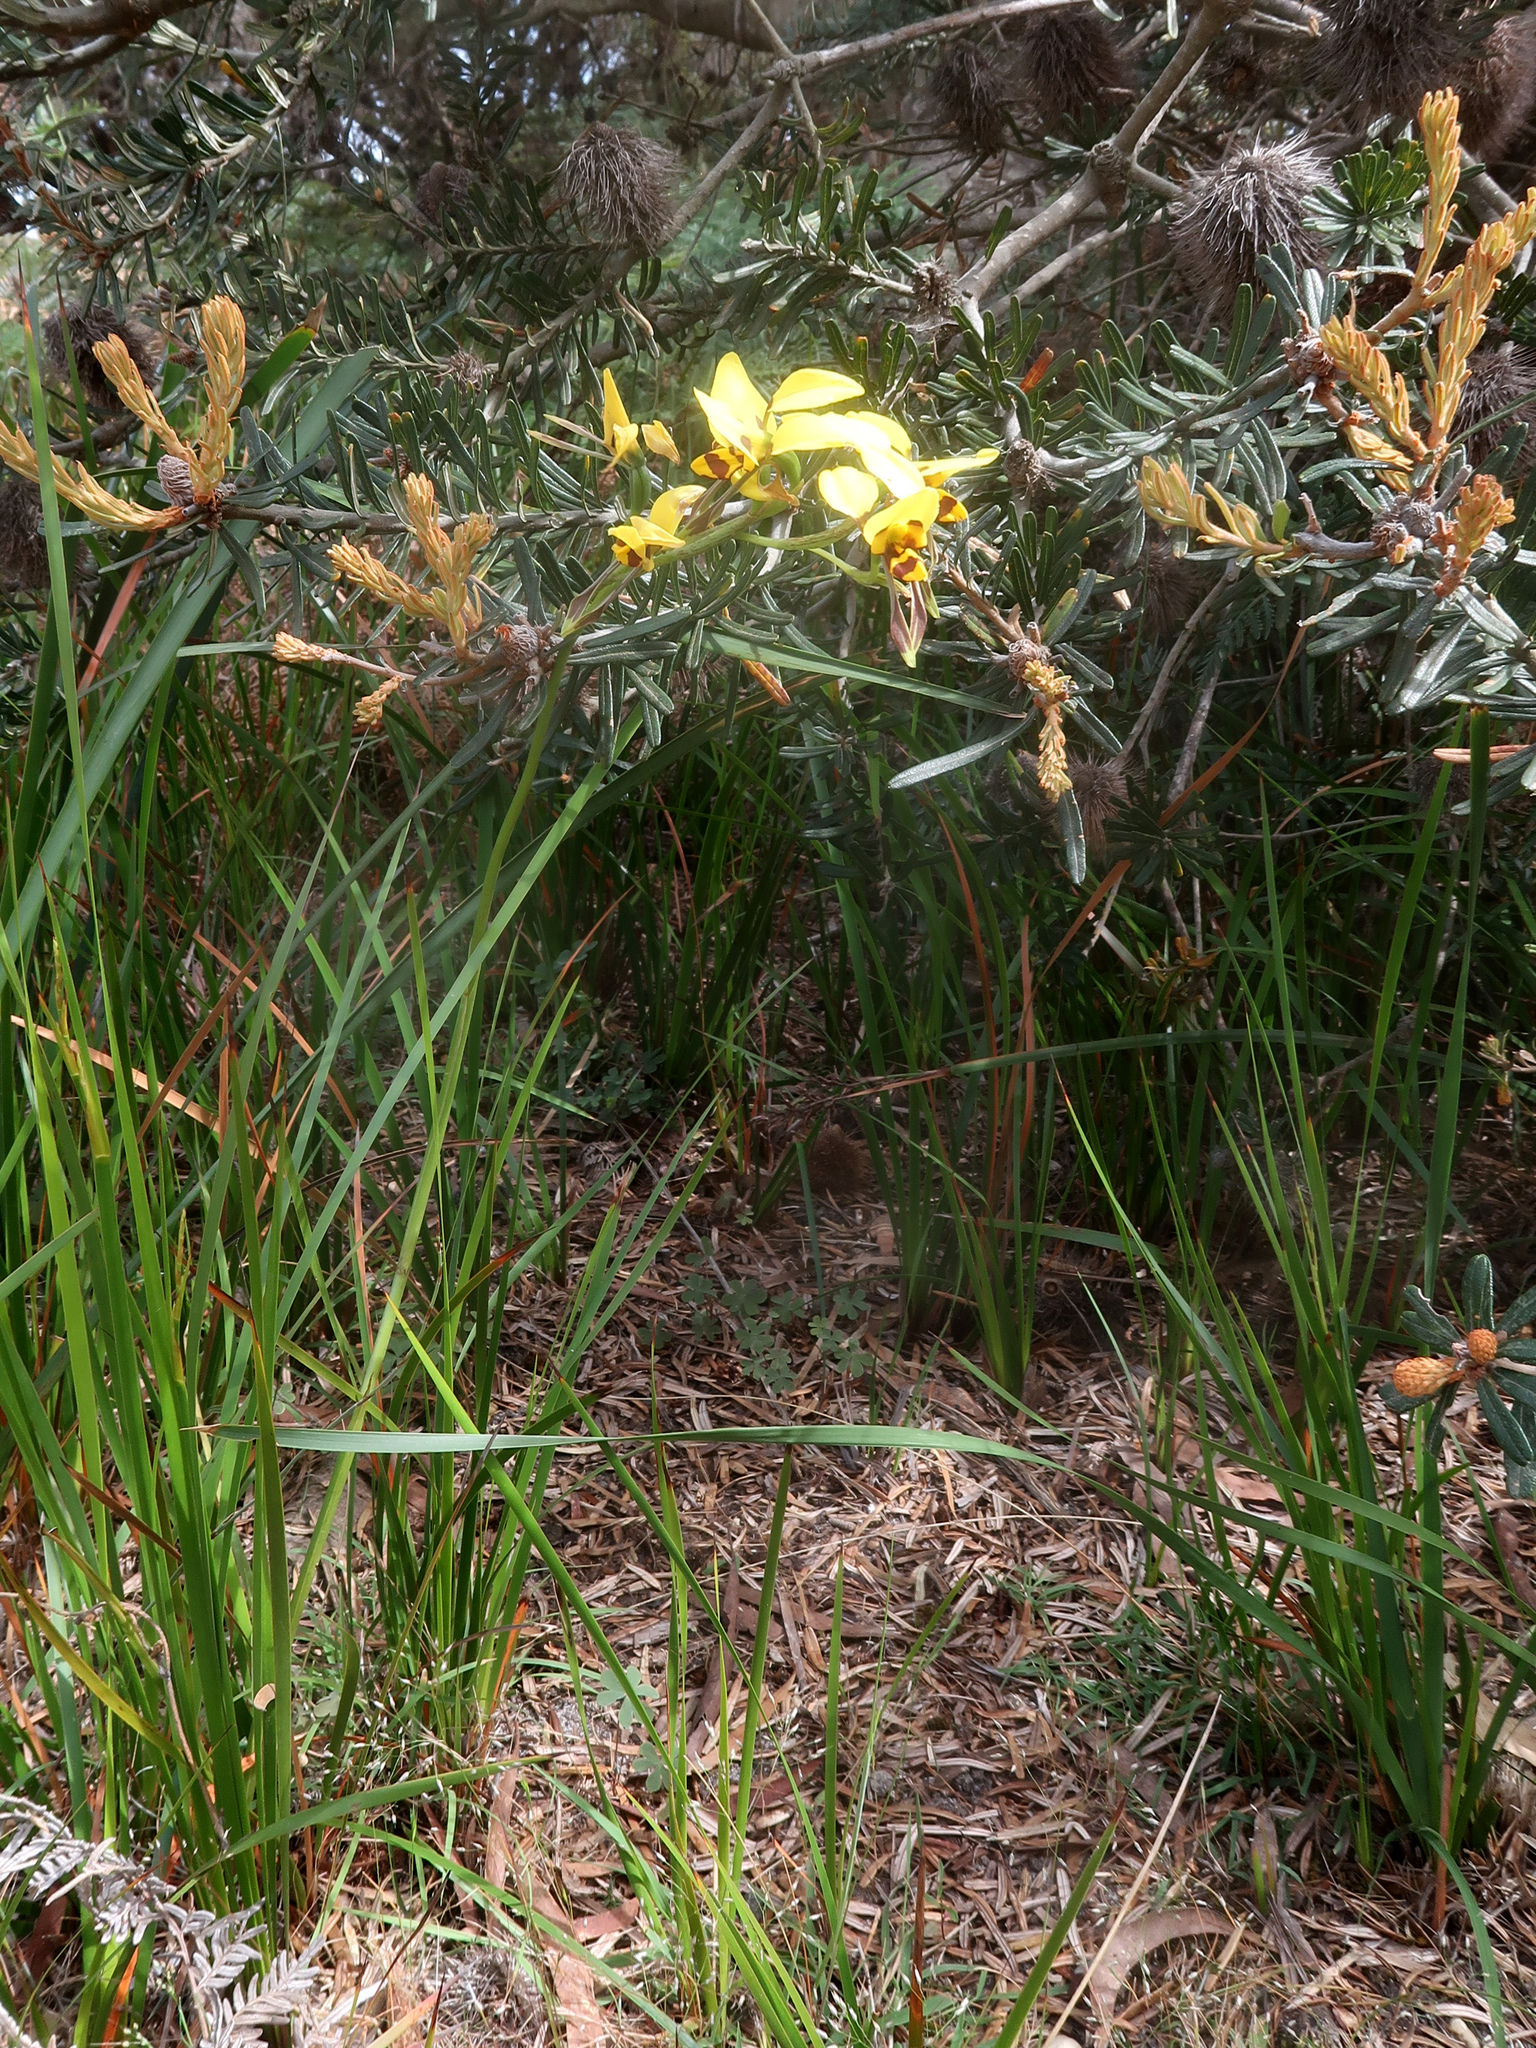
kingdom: Plantae
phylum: Tracheophyta
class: Liliopsida
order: Asparagales
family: Orchidaceae
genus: Diuris
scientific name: Diuris sulphurea
